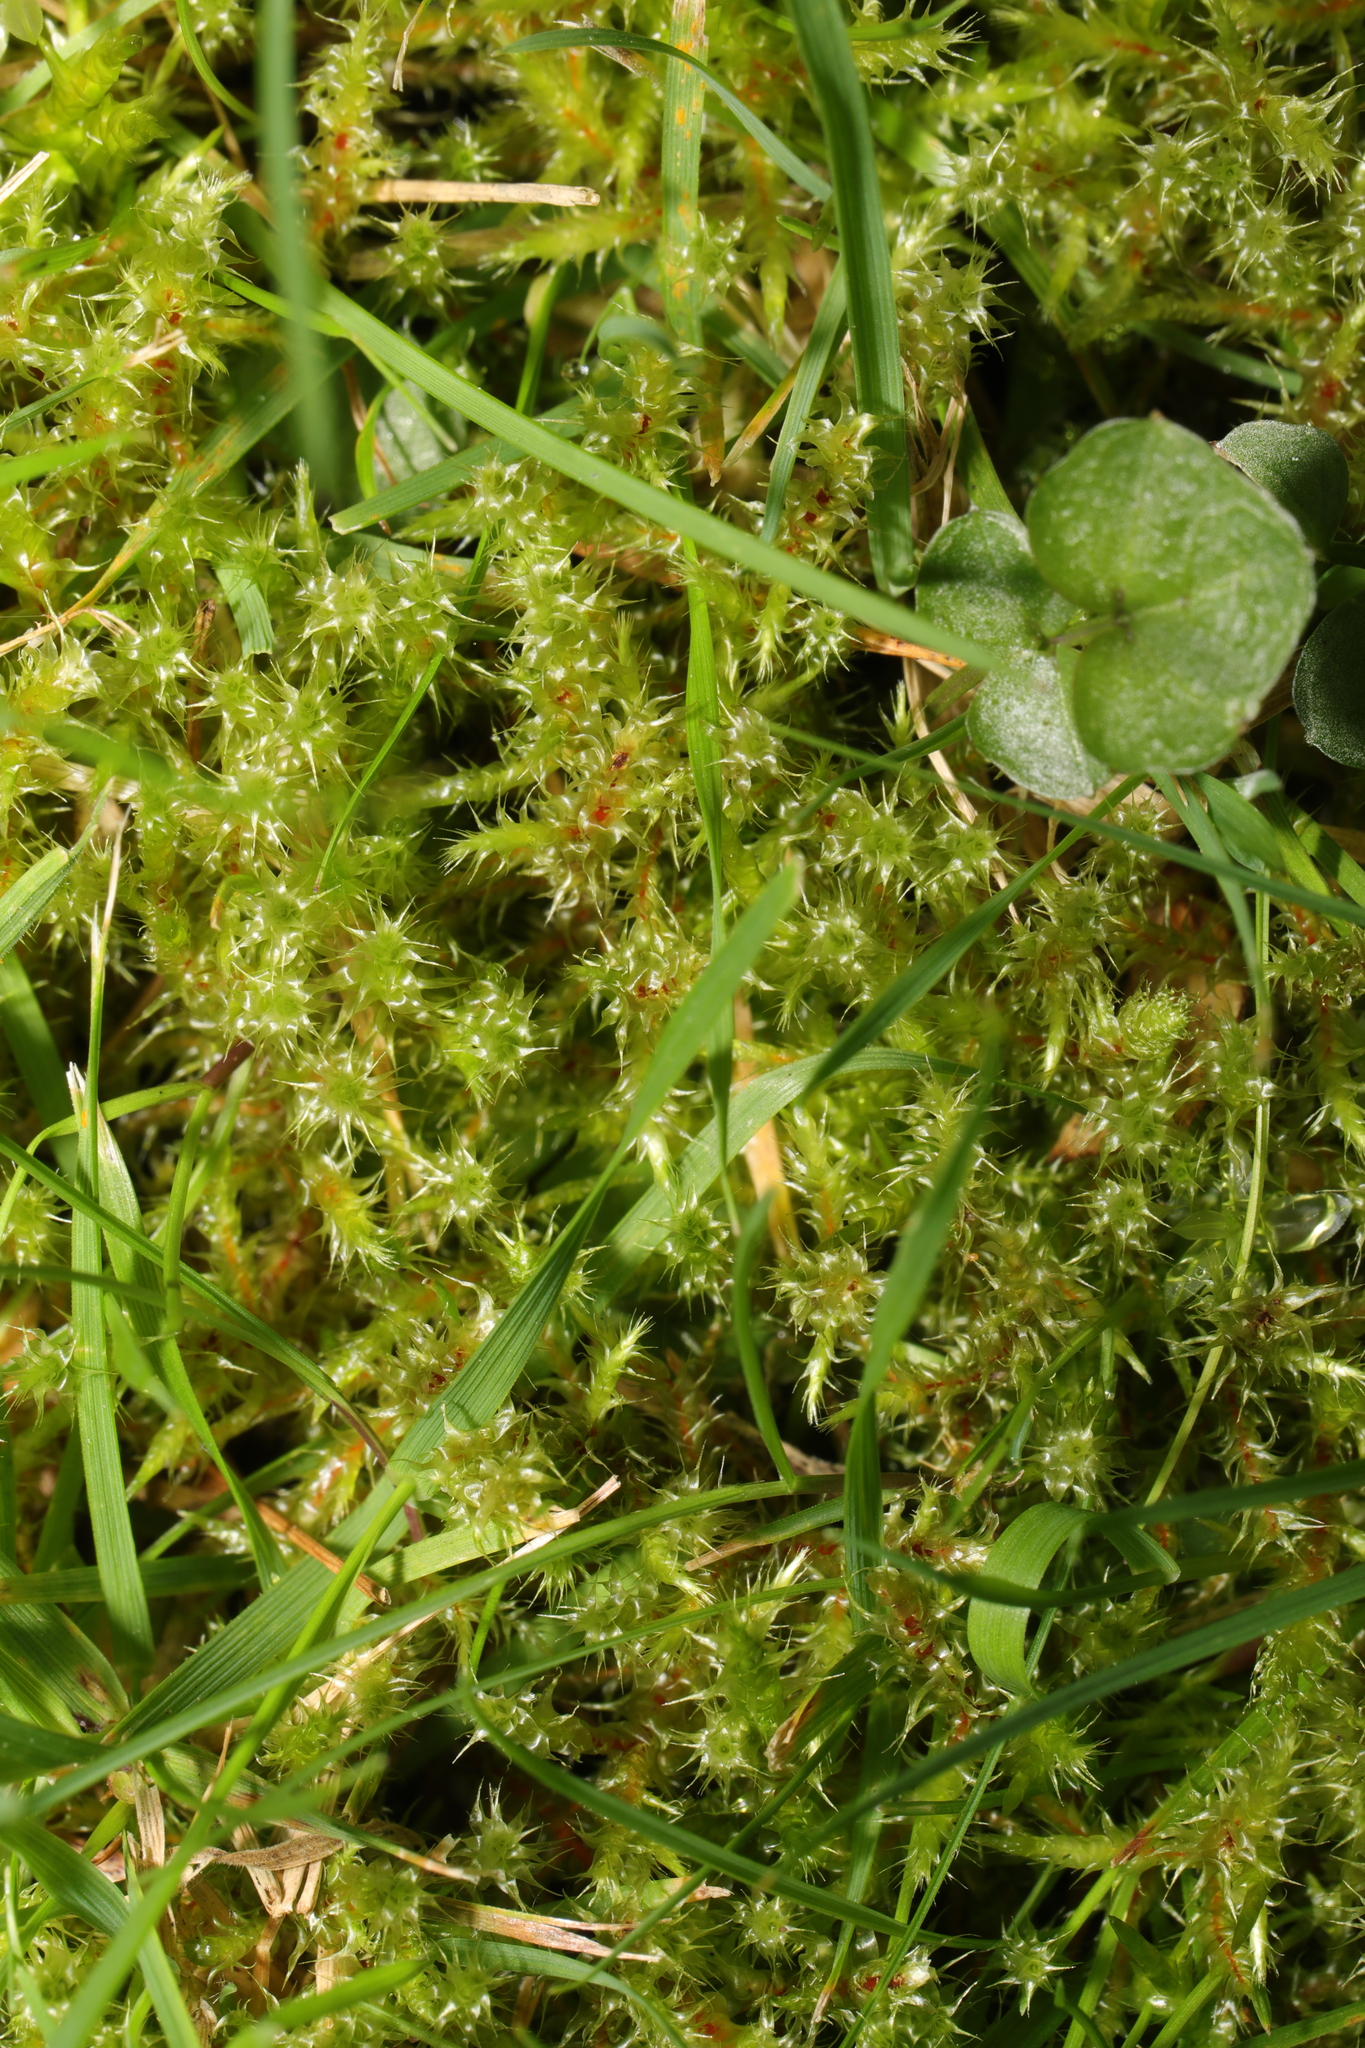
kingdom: Plantae
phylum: Bryophyta
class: Bryopsida
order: Hypnales
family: Hylocomiaceae
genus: Rhytidiadelphus
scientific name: Rhytidiadelphus squarrosus
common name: Springy turf-moss
